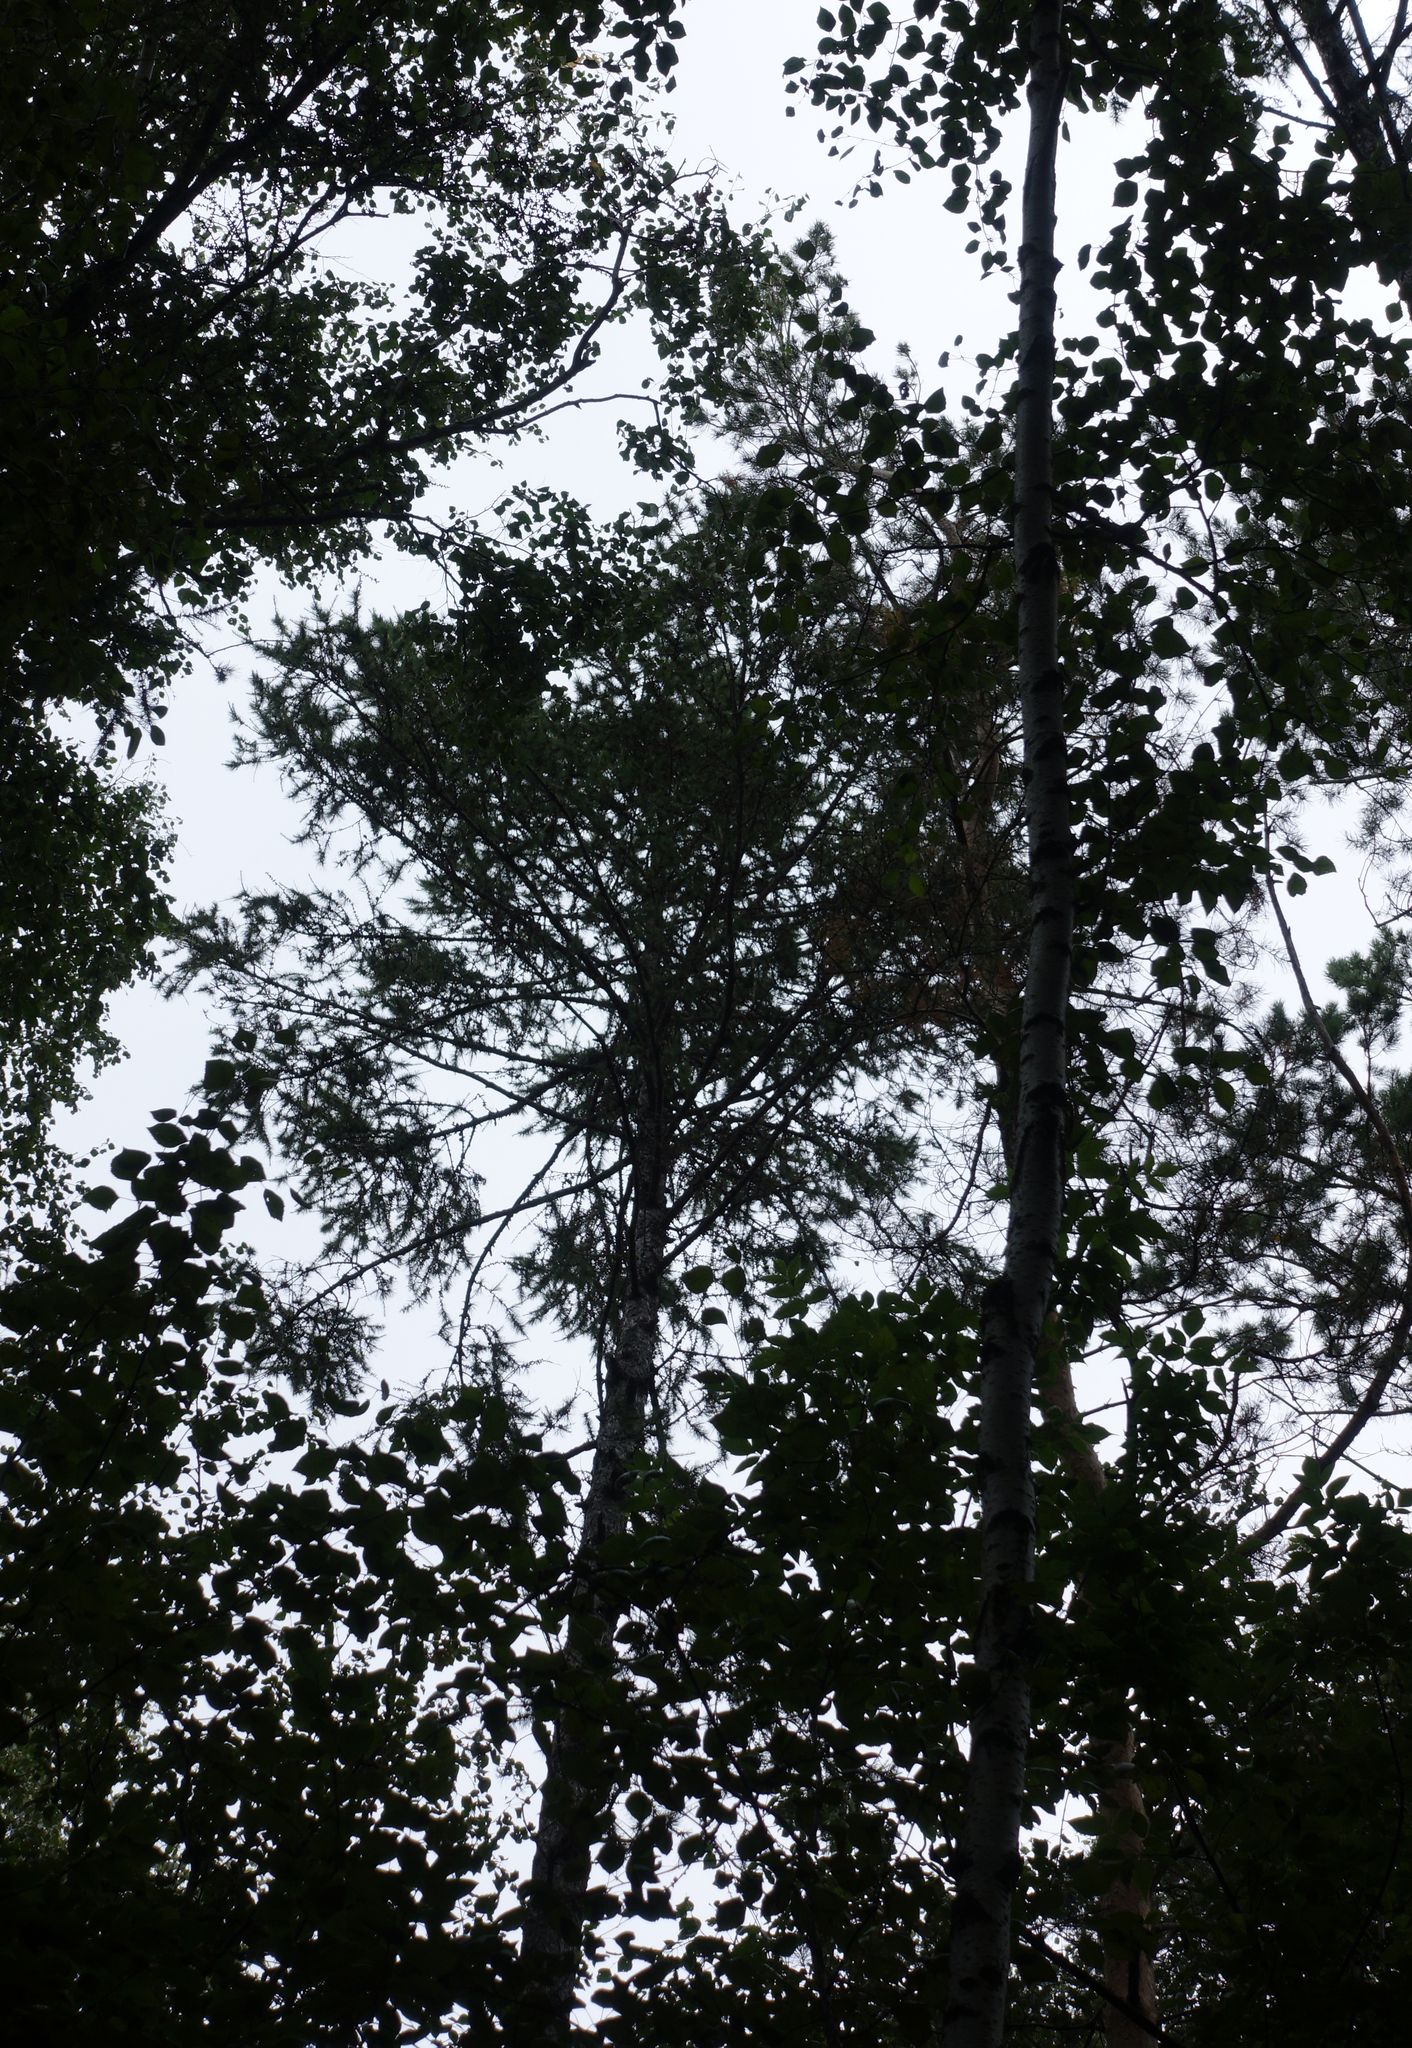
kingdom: Plantae
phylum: Tracheophyta
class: Pinopsida
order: Pinales
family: Pinaceae
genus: Larix
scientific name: Larix sibirica
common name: Siberian larch
